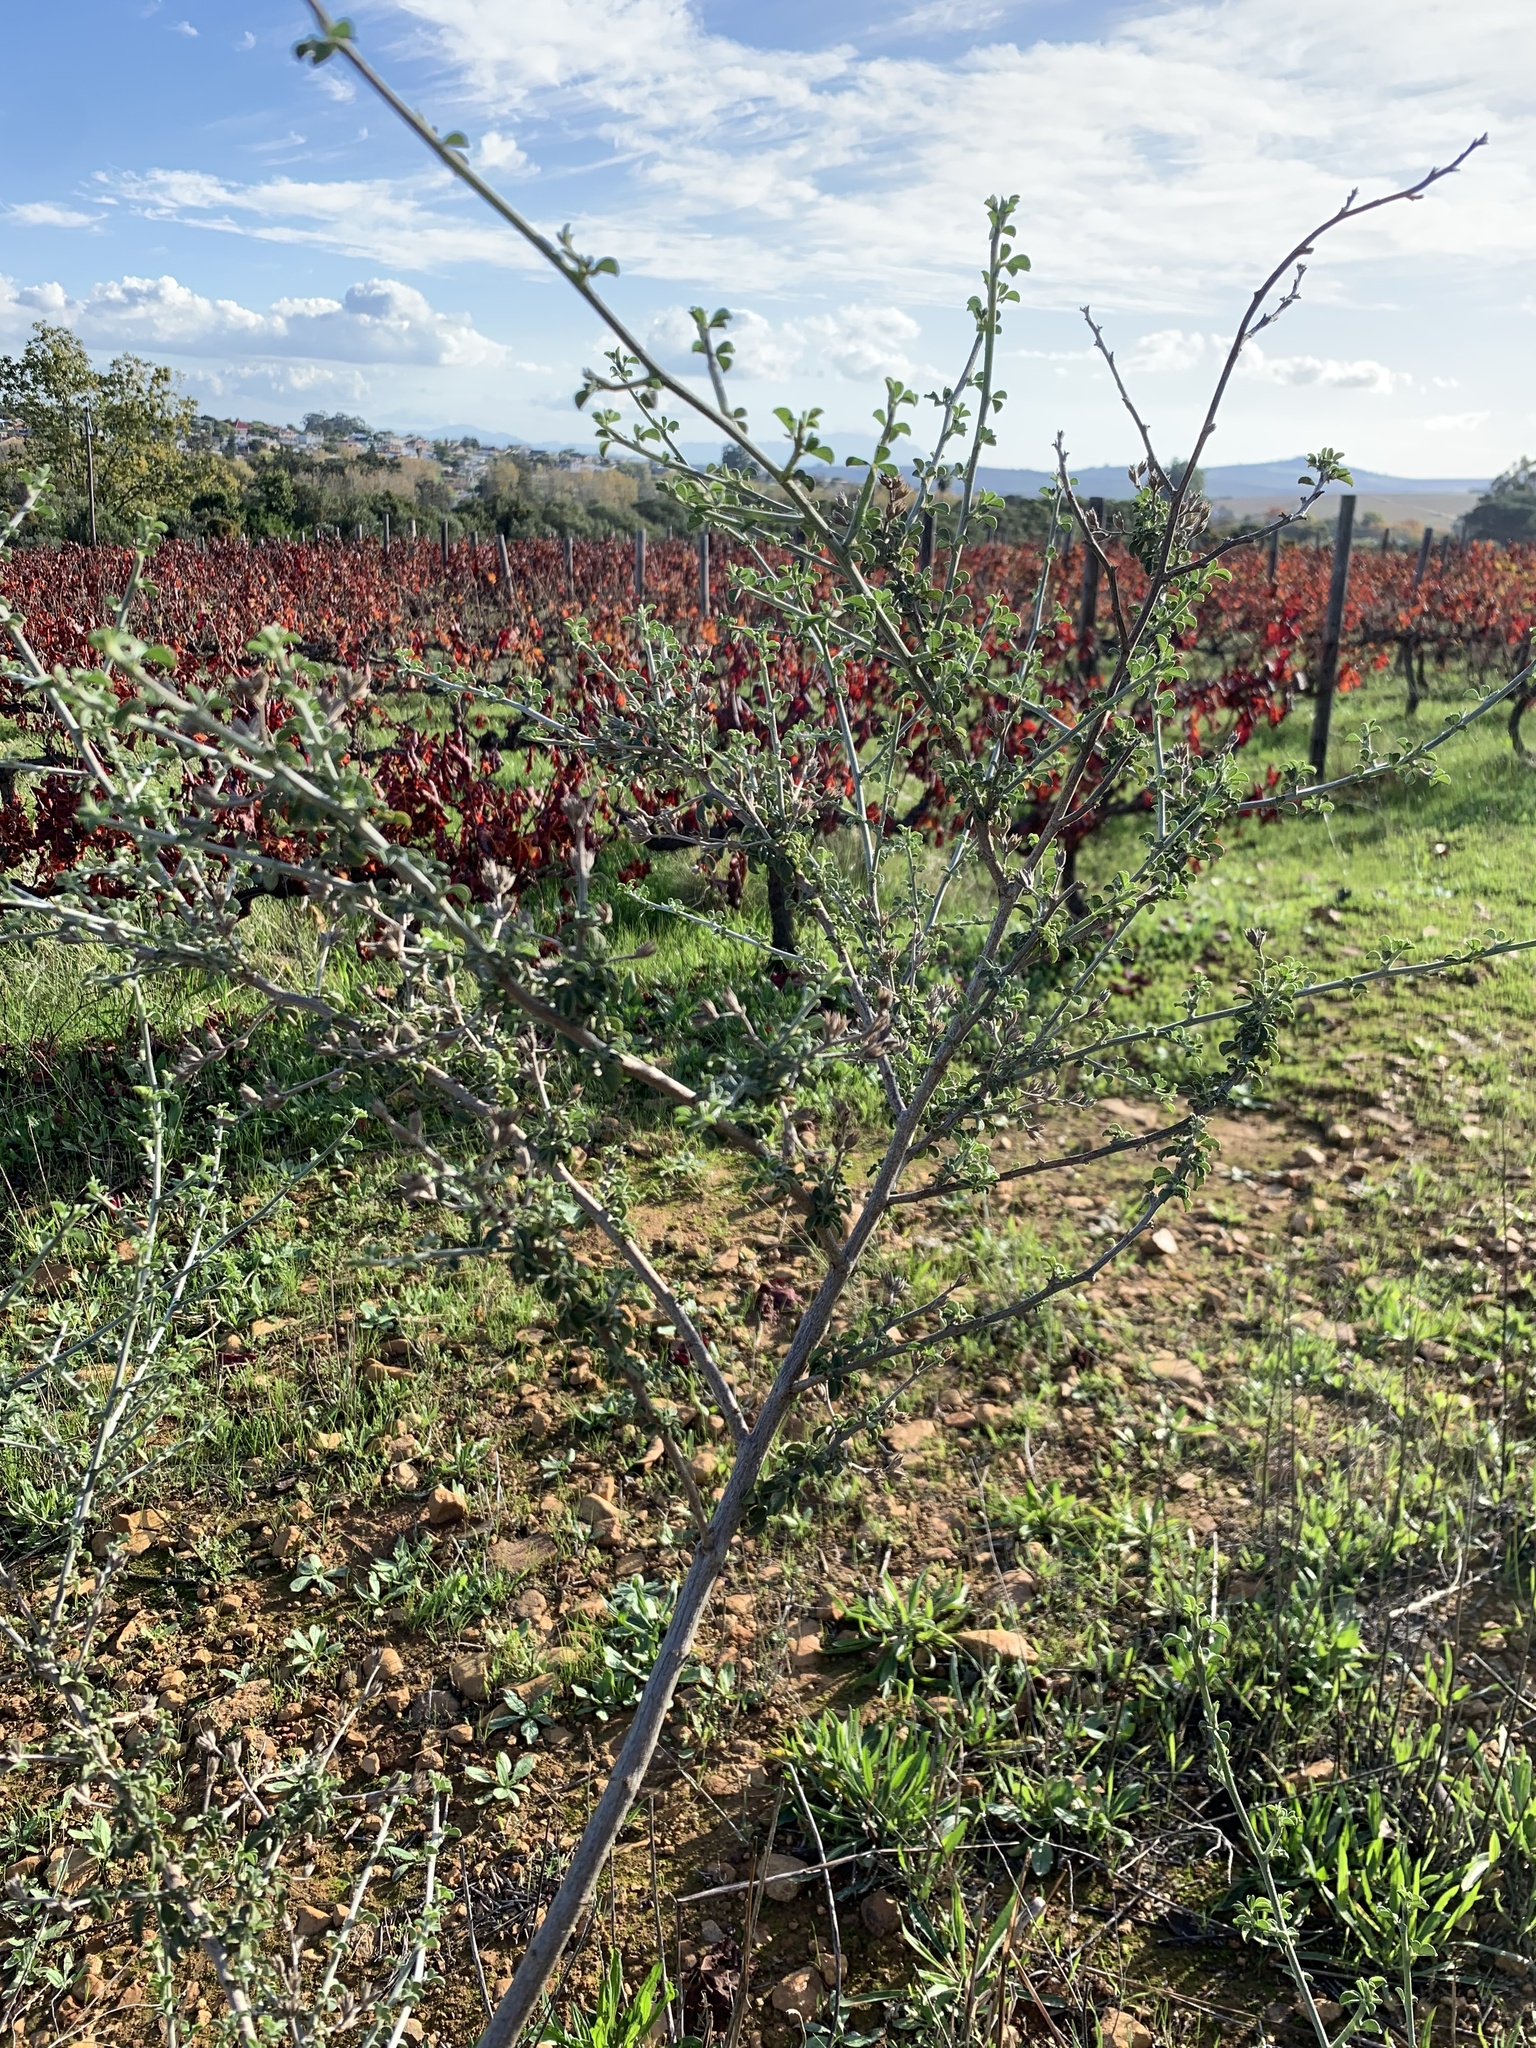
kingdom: Plantae
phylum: Tracheophyta
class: Magnoliopsida
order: Fabales
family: Fabaceae
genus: Psoralea
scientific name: Psoralea hirta
